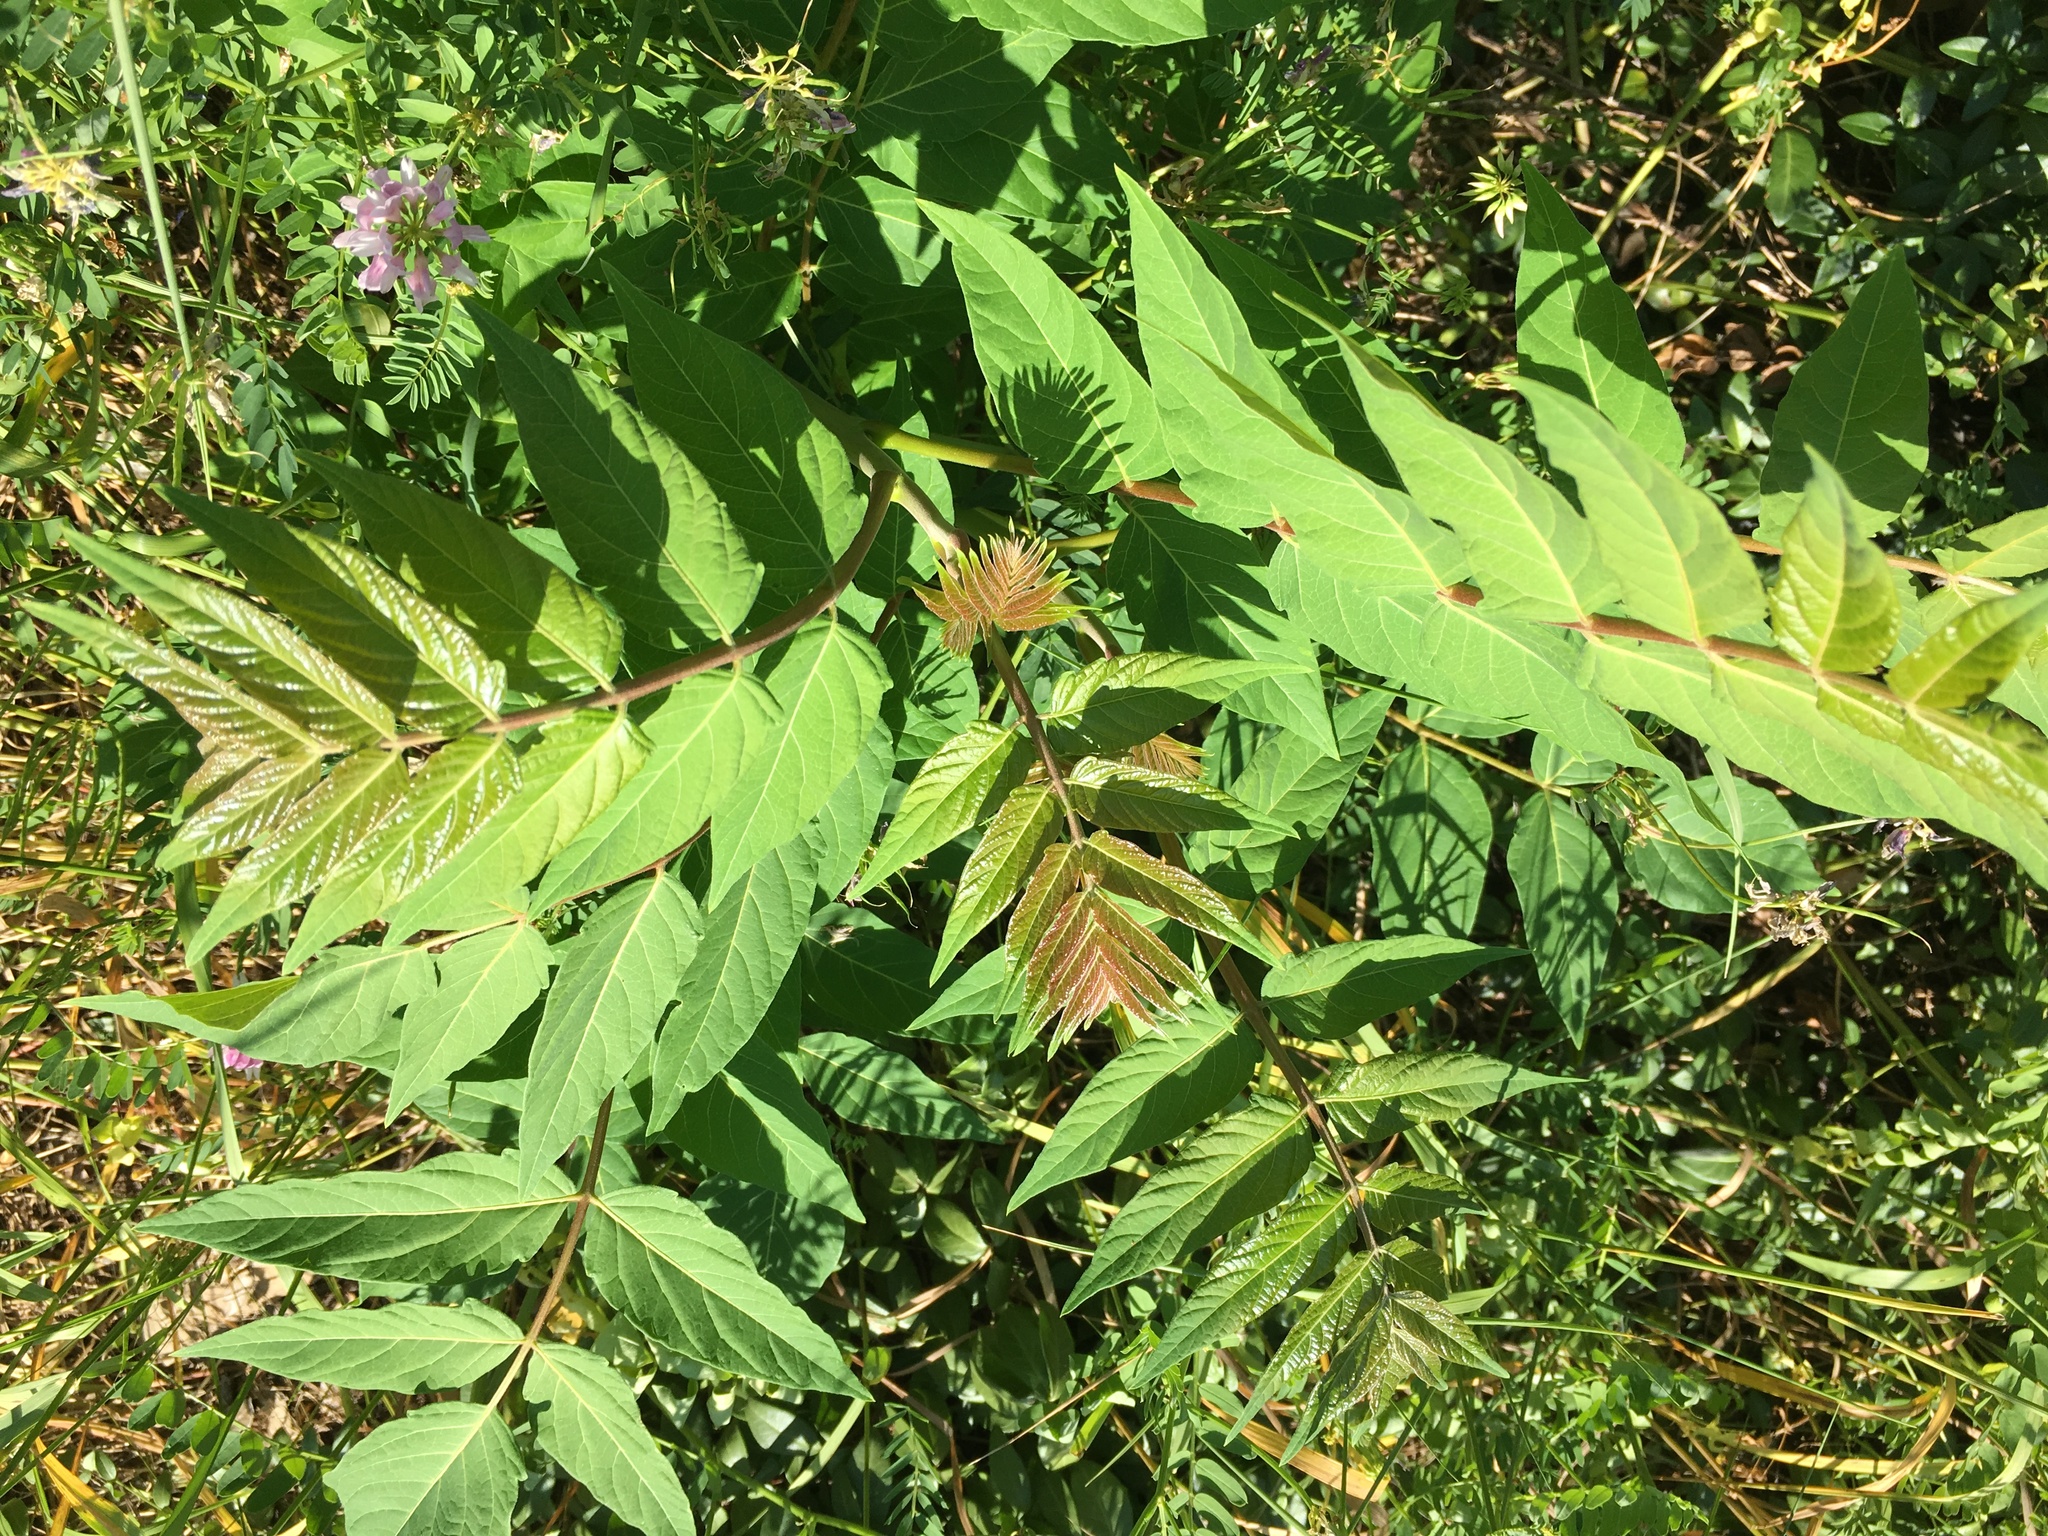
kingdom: Plantae
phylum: Tracheophyta
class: Magnoliopsida
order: Sapindales
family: Simaroubaceae
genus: Ailanthus
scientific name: Ailanthus altissima
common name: Tree-of-heaven
